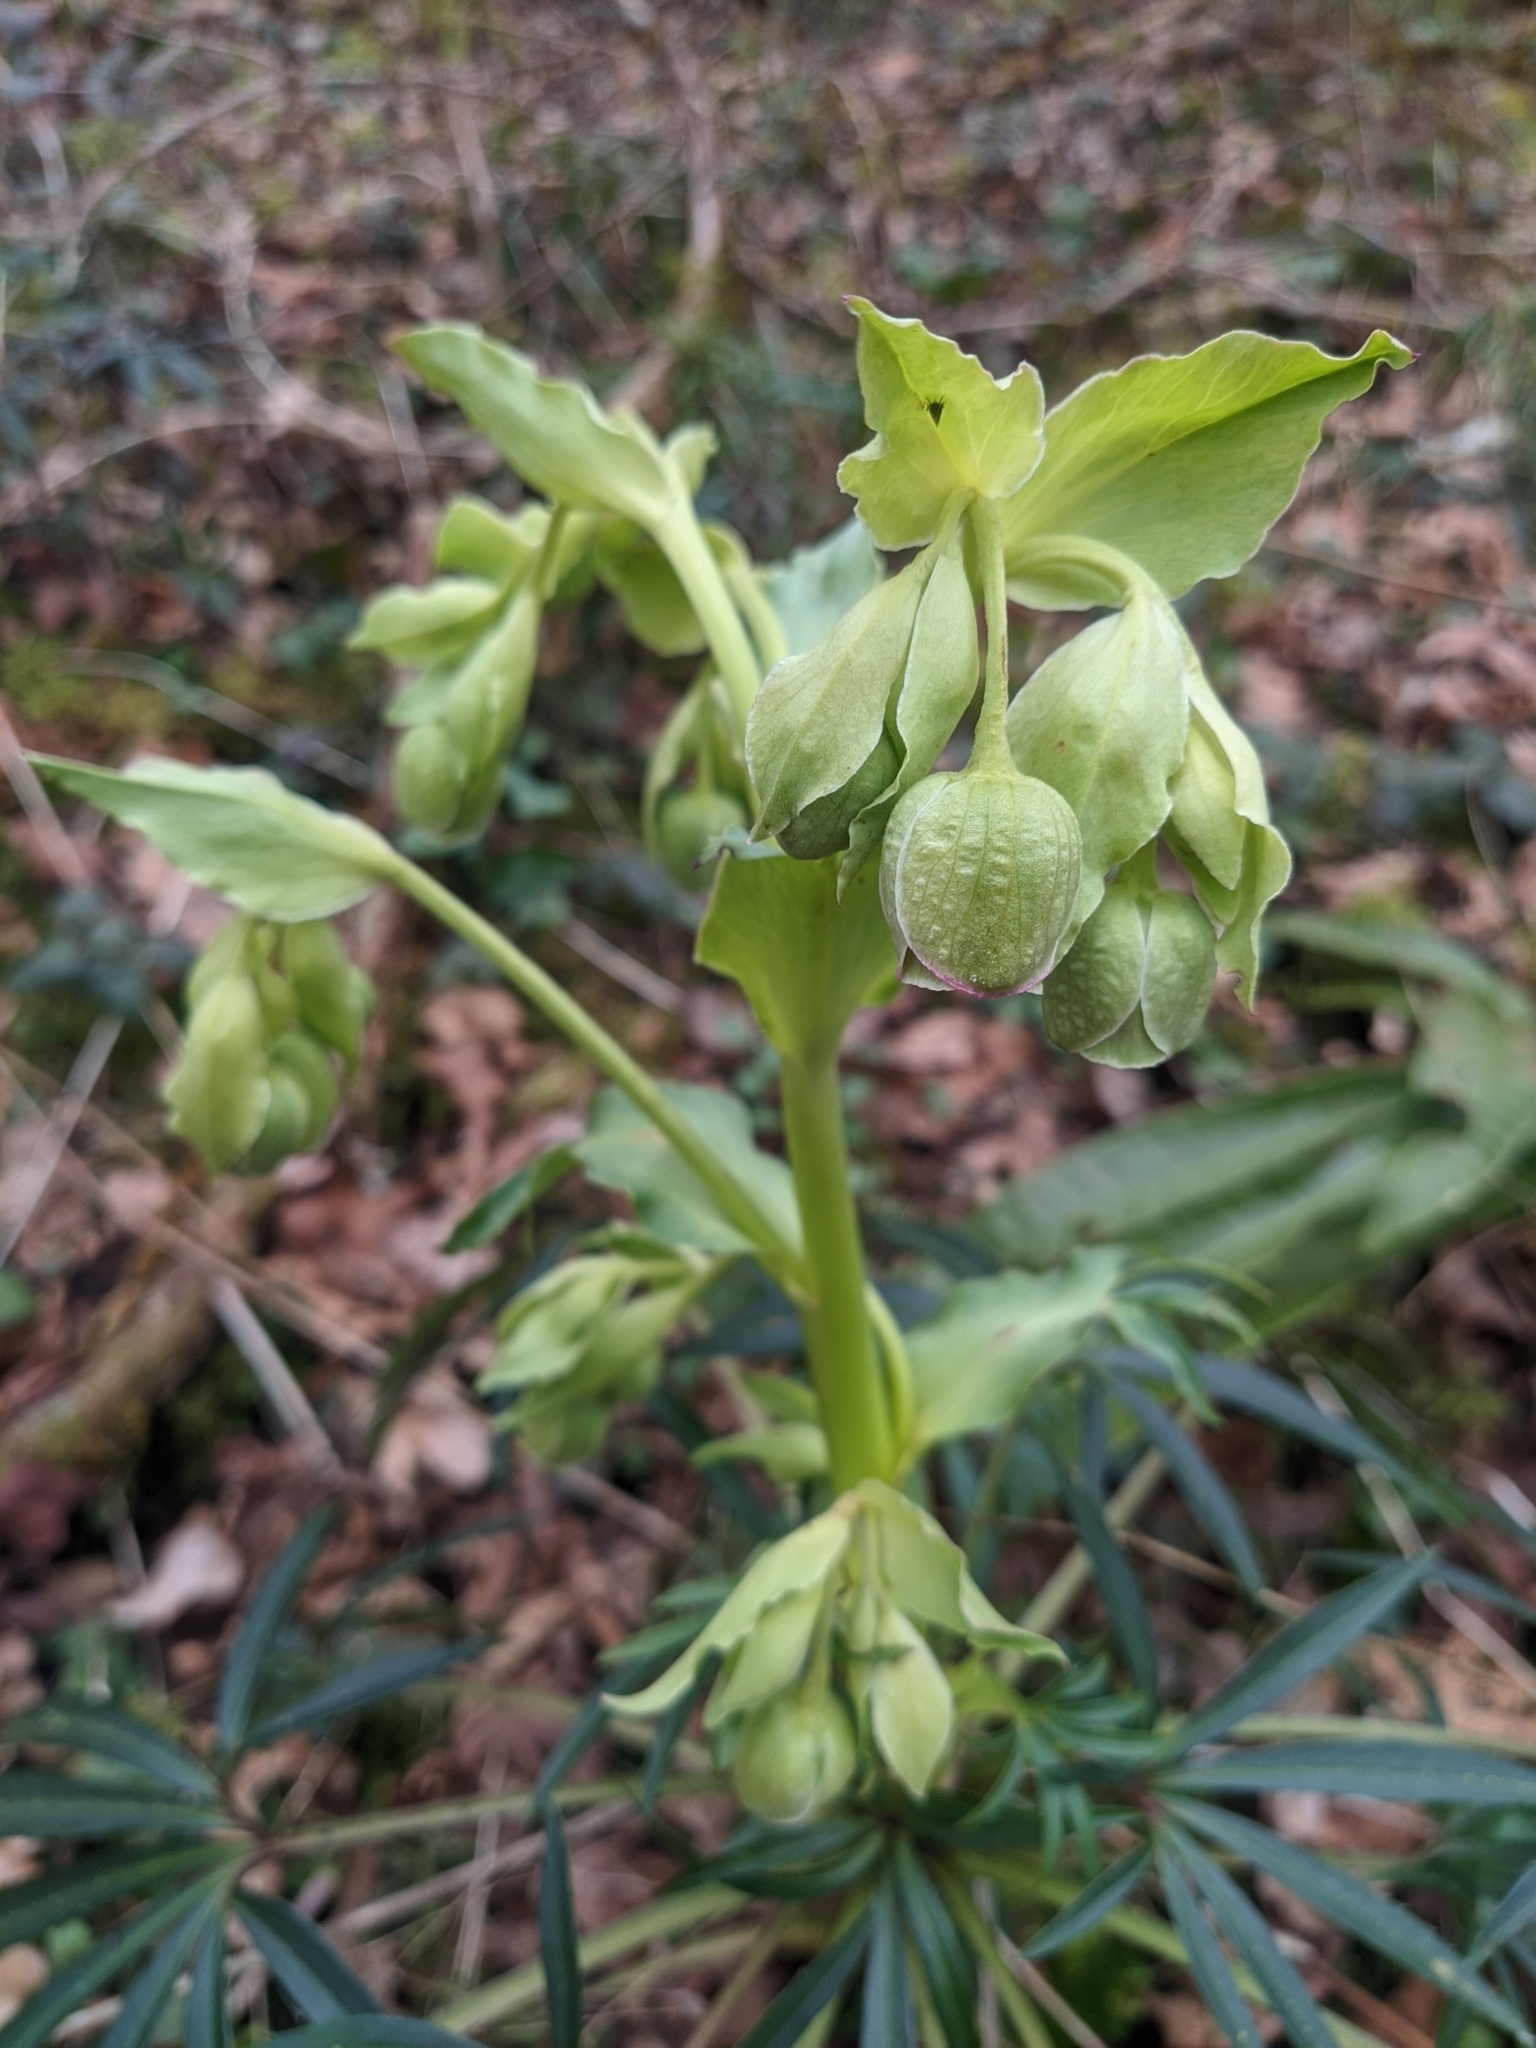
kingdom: Plantae
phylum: Tracheophyta
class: Magnoliopsida
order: Ranunculales
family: Ranunculaceae
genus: Helleborus
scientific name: Helleborus foetidus
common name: Stinking hellebore
